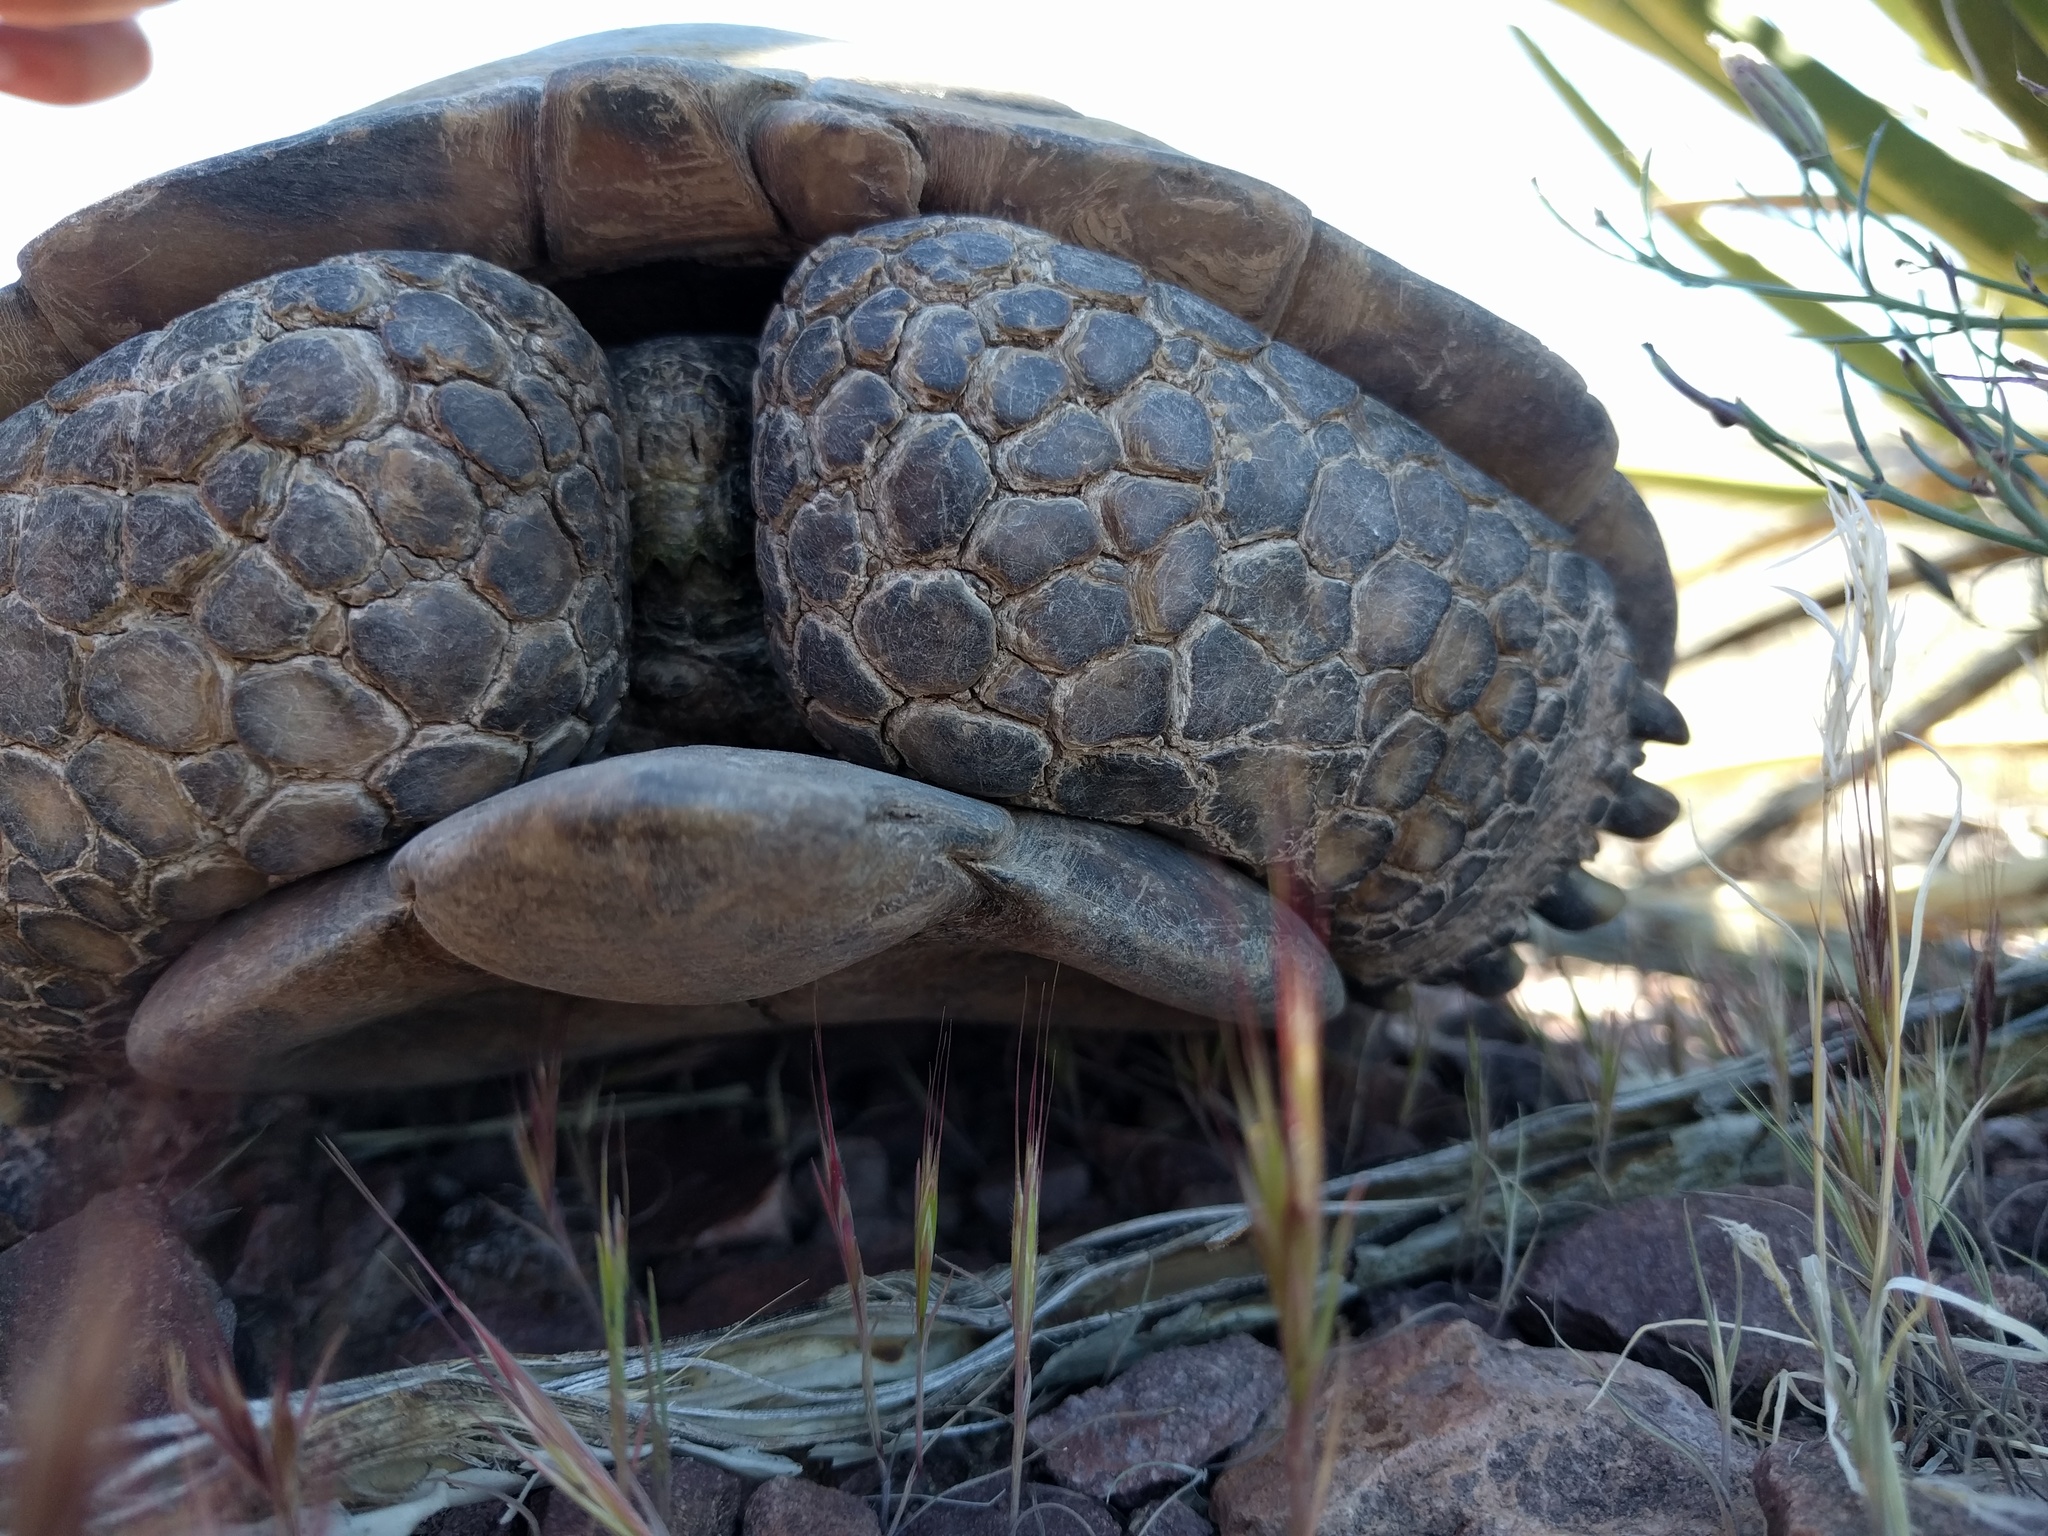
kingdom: Animalia
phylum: Chordata
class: Testudines
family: Testudinidae
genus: Gopherus
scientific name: Gopherus agassizii
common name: Mojave desert tortoise
